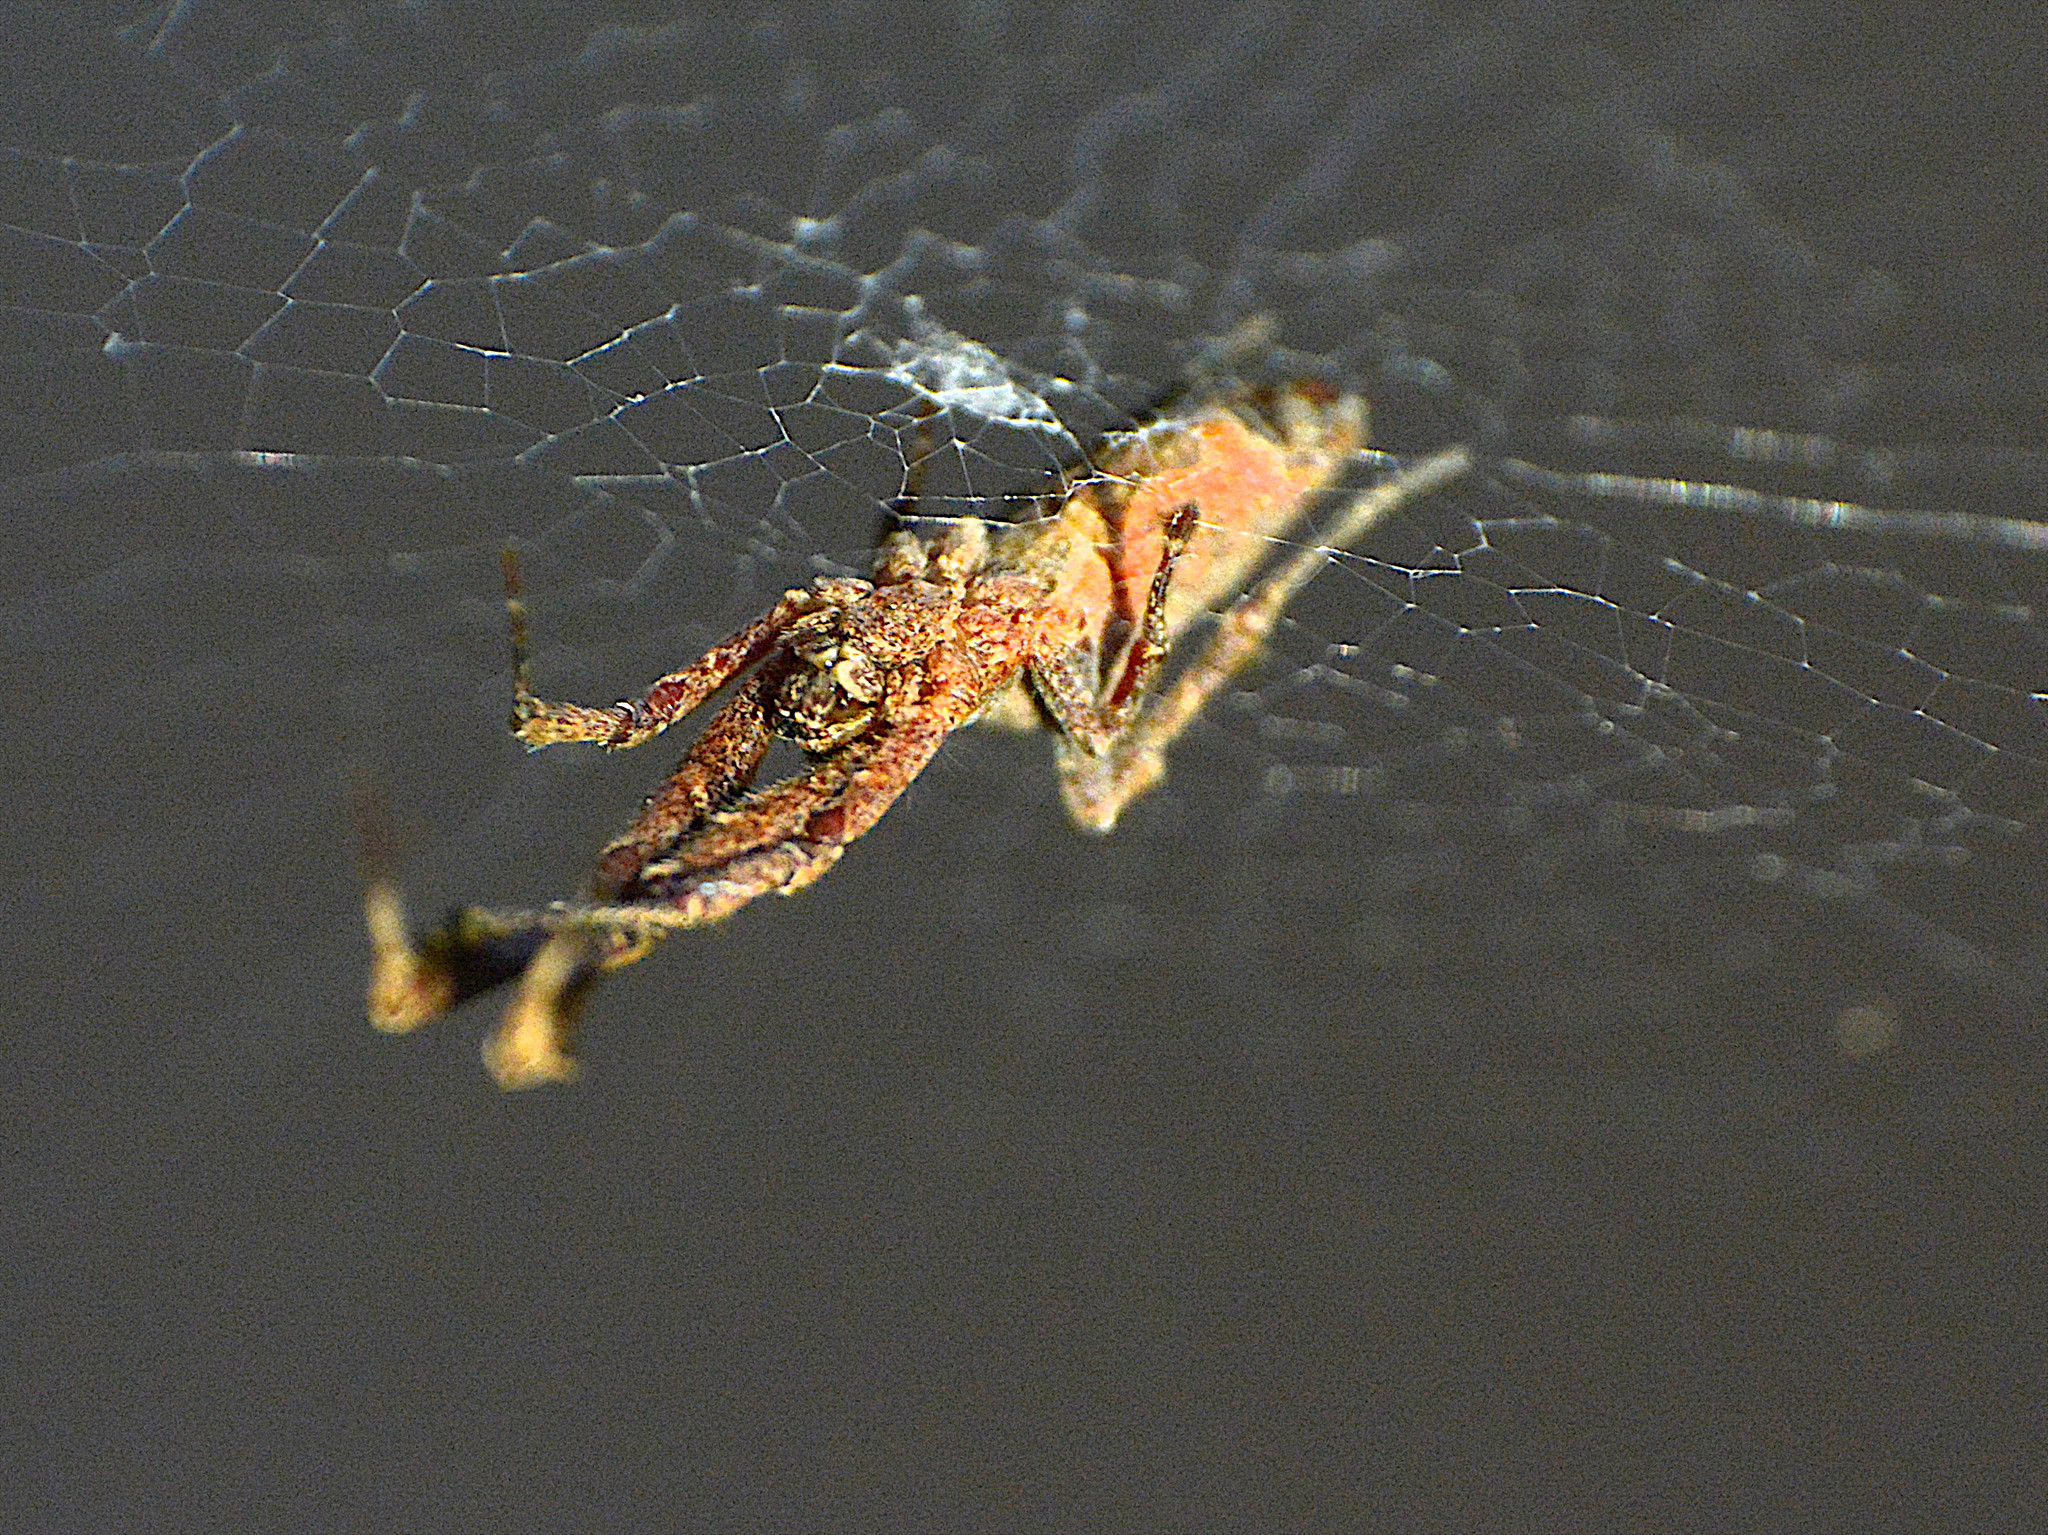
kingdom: Animalia
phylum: Arthropoda
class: Arachnida
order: Araneae
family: Uloboridae
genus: Uloborus
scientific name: Uloborus plumipes
